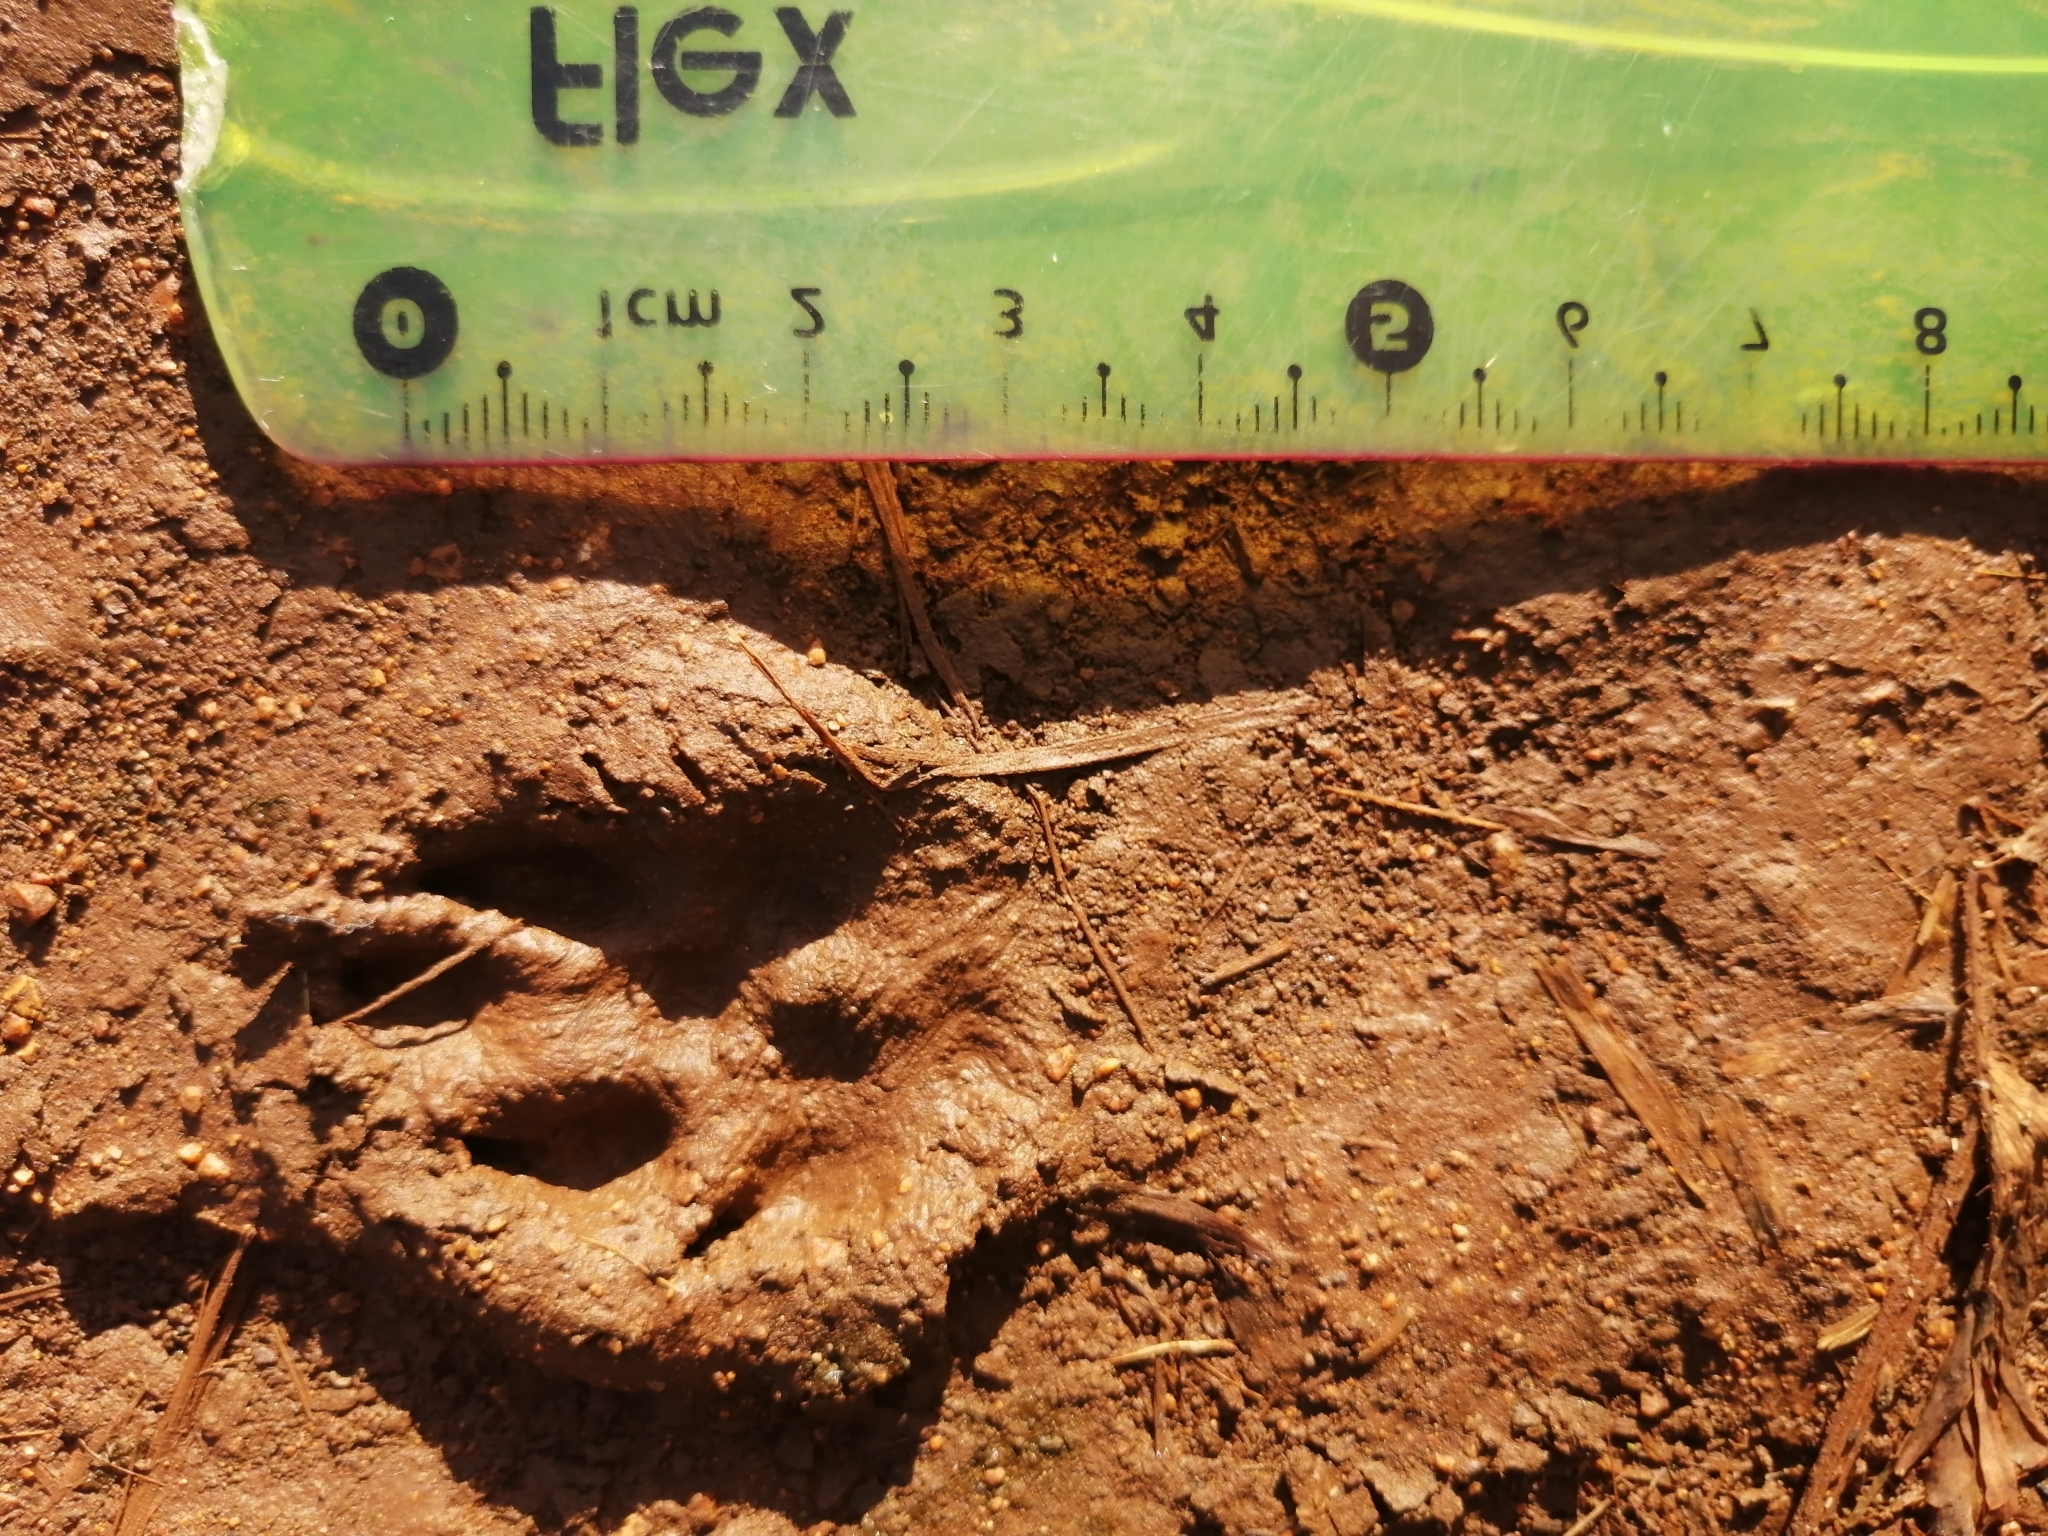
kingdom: Animalia
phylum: Chordata
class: Mammalia
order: Lagomorpha
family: Leporidae
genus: Sylvilagus
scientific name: Sylvilagus floridanus
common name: Eastern cottontail
